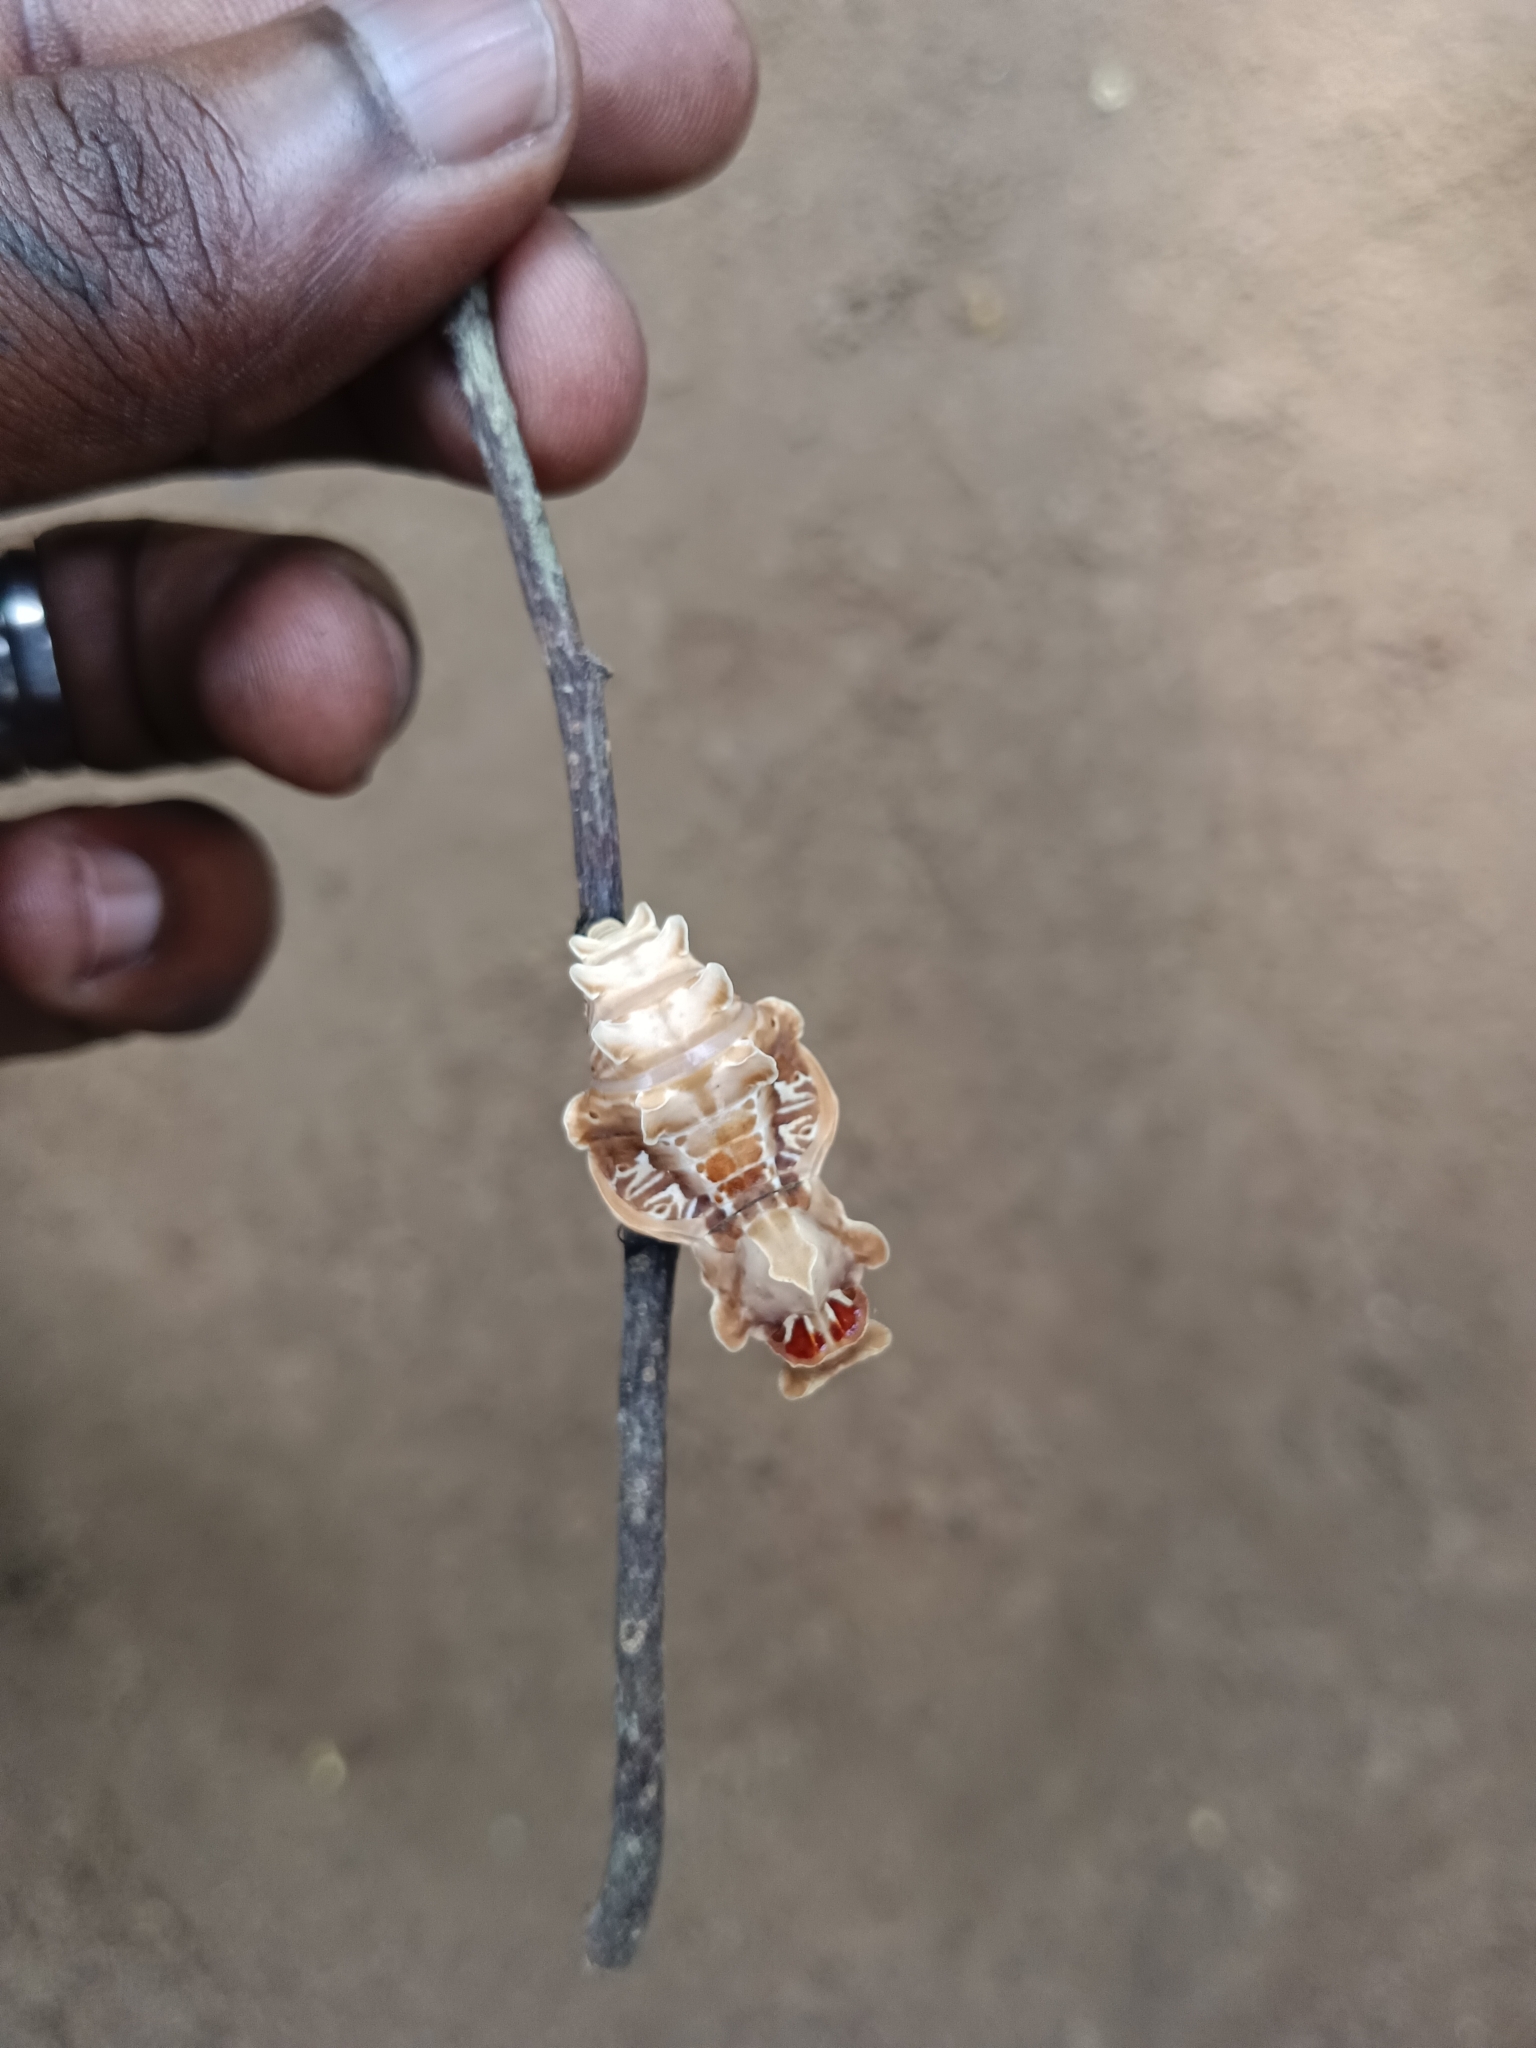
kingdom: Animalia
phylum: Arthropoda
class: Insecta
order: Lepidoptera
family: Papilionidae
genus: Pachliopta
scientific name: Pachliopta aristolochiae
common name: Common rose
